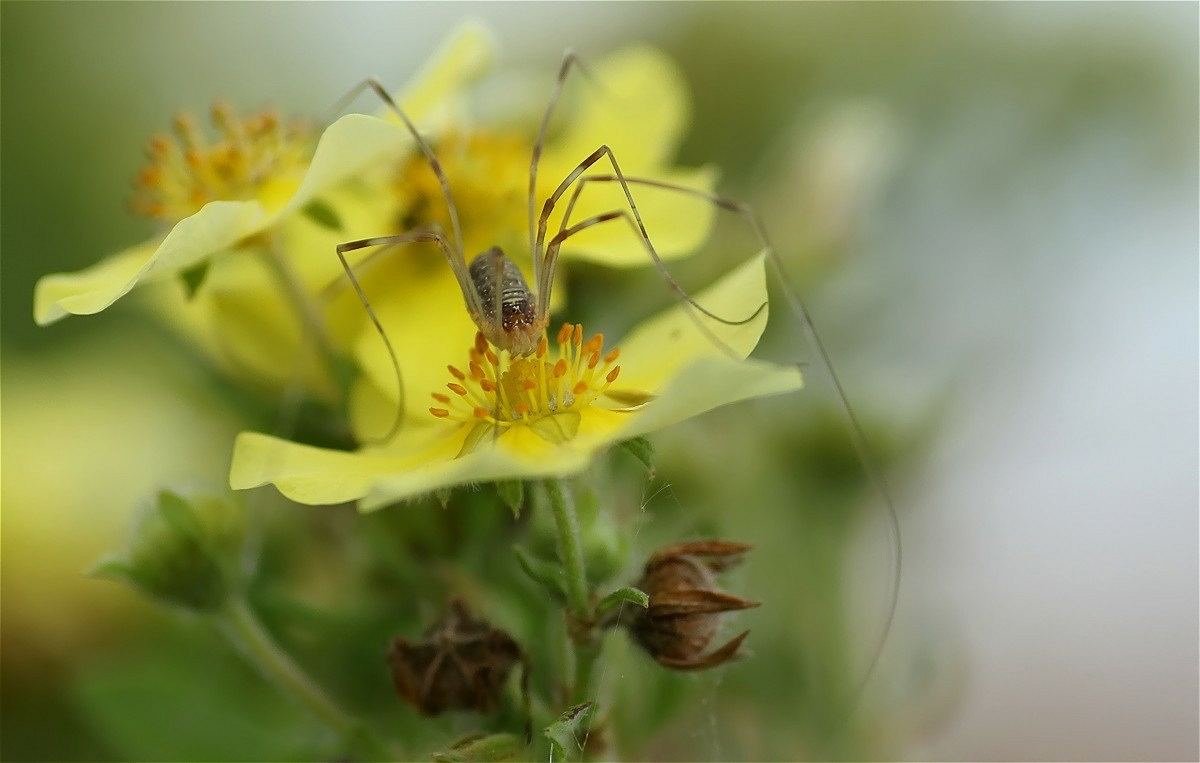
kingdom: Animalia
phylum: Arthropoda
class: Arachnida
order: Opiliones
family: Phalangiidae
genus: Opilio
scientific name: Opilio canestrinii
